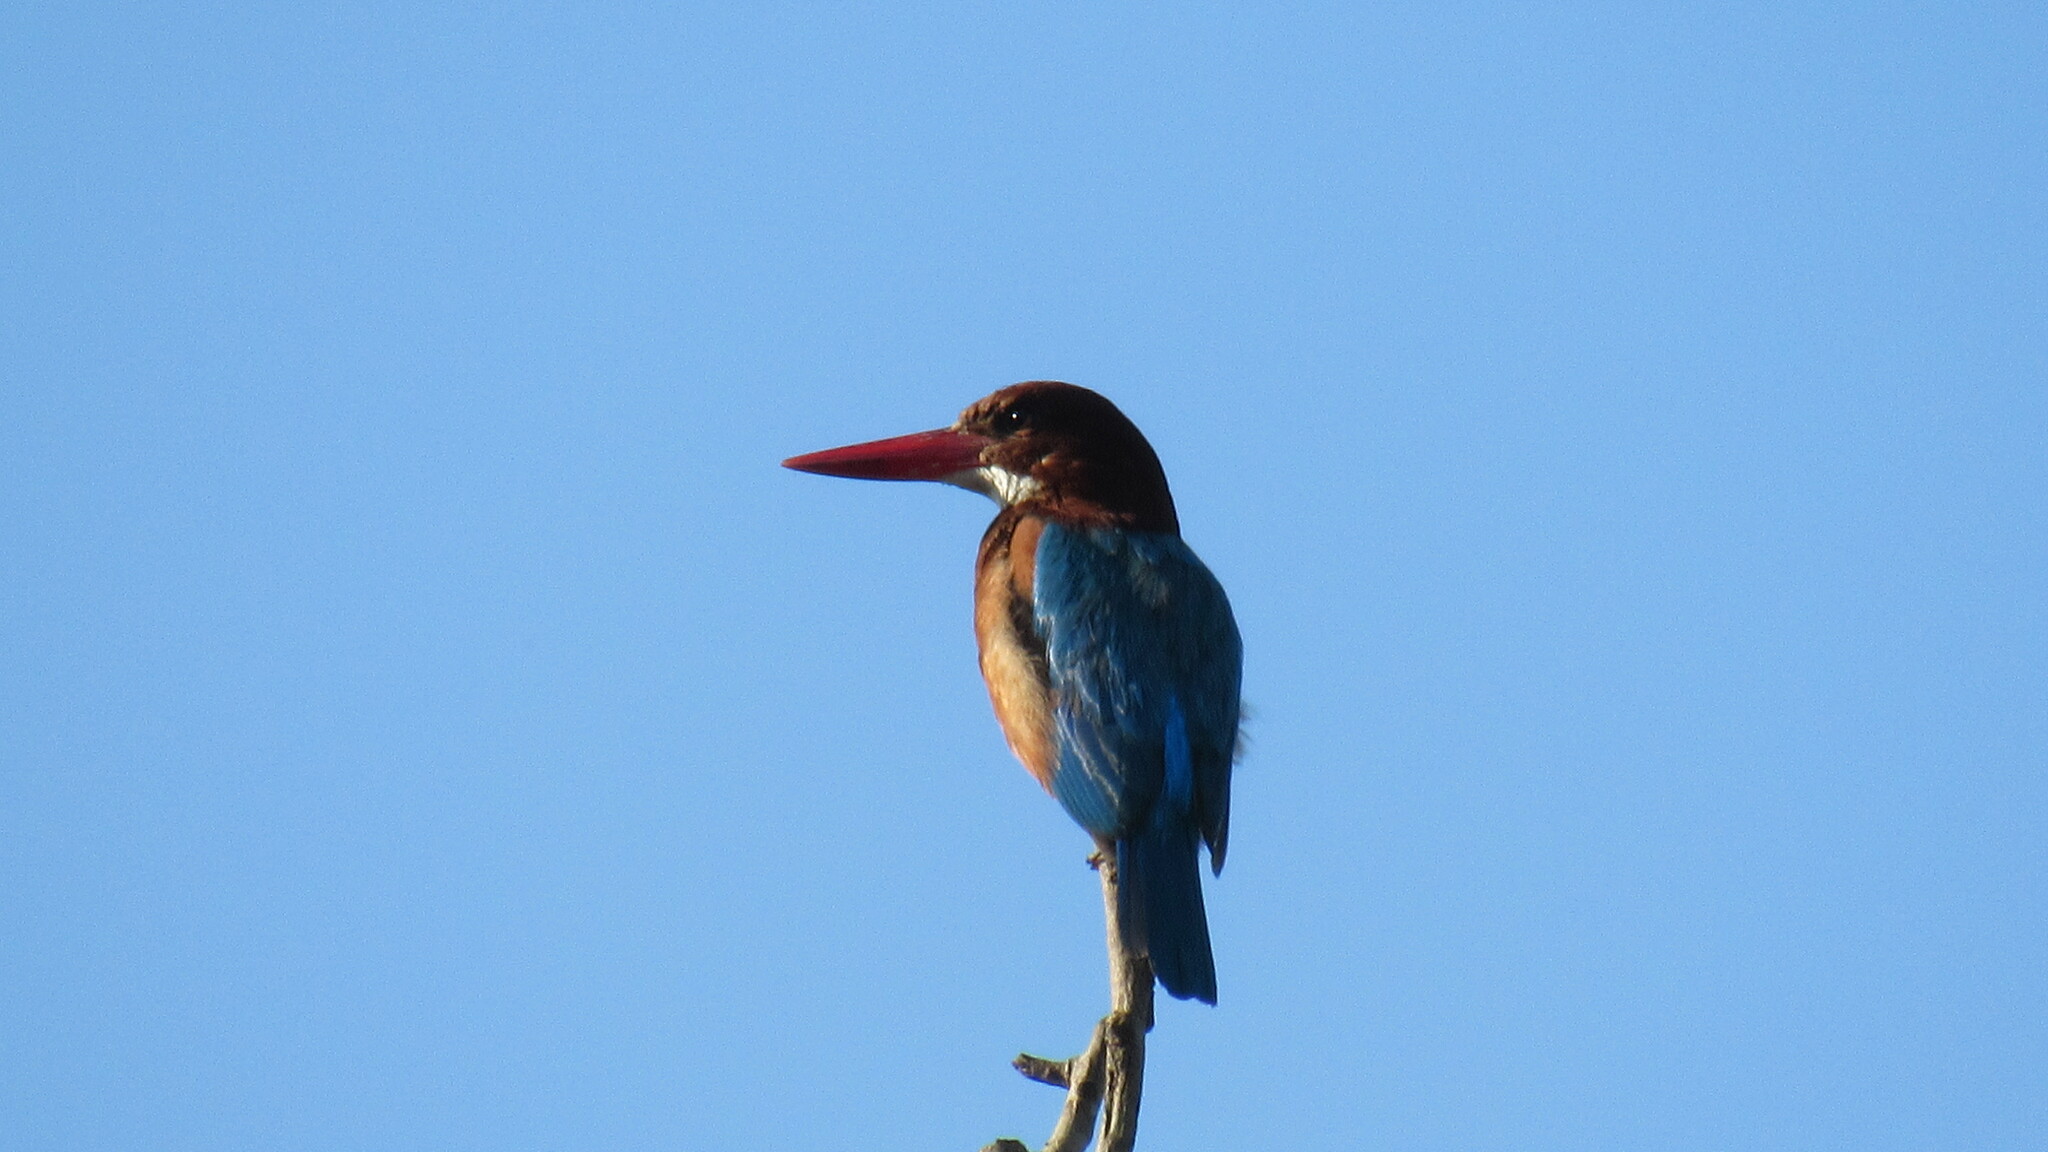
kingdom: Animalia
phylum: Chordata
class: Aves
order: Coraciiformes
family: Alcedinidae
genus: Halcyon
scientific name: Halcyon smyrnensis
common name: White-throated kingfisher
